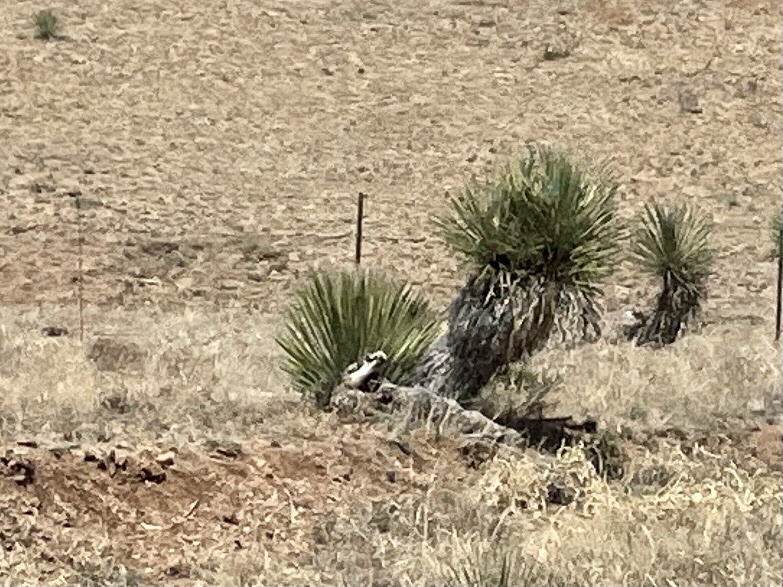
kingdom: Plantae
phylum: Tracheophyta
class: Liliopsida
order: Asparagales
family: Asparagaceae
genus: Yucca
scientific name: Yucca elata
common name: Palmella
